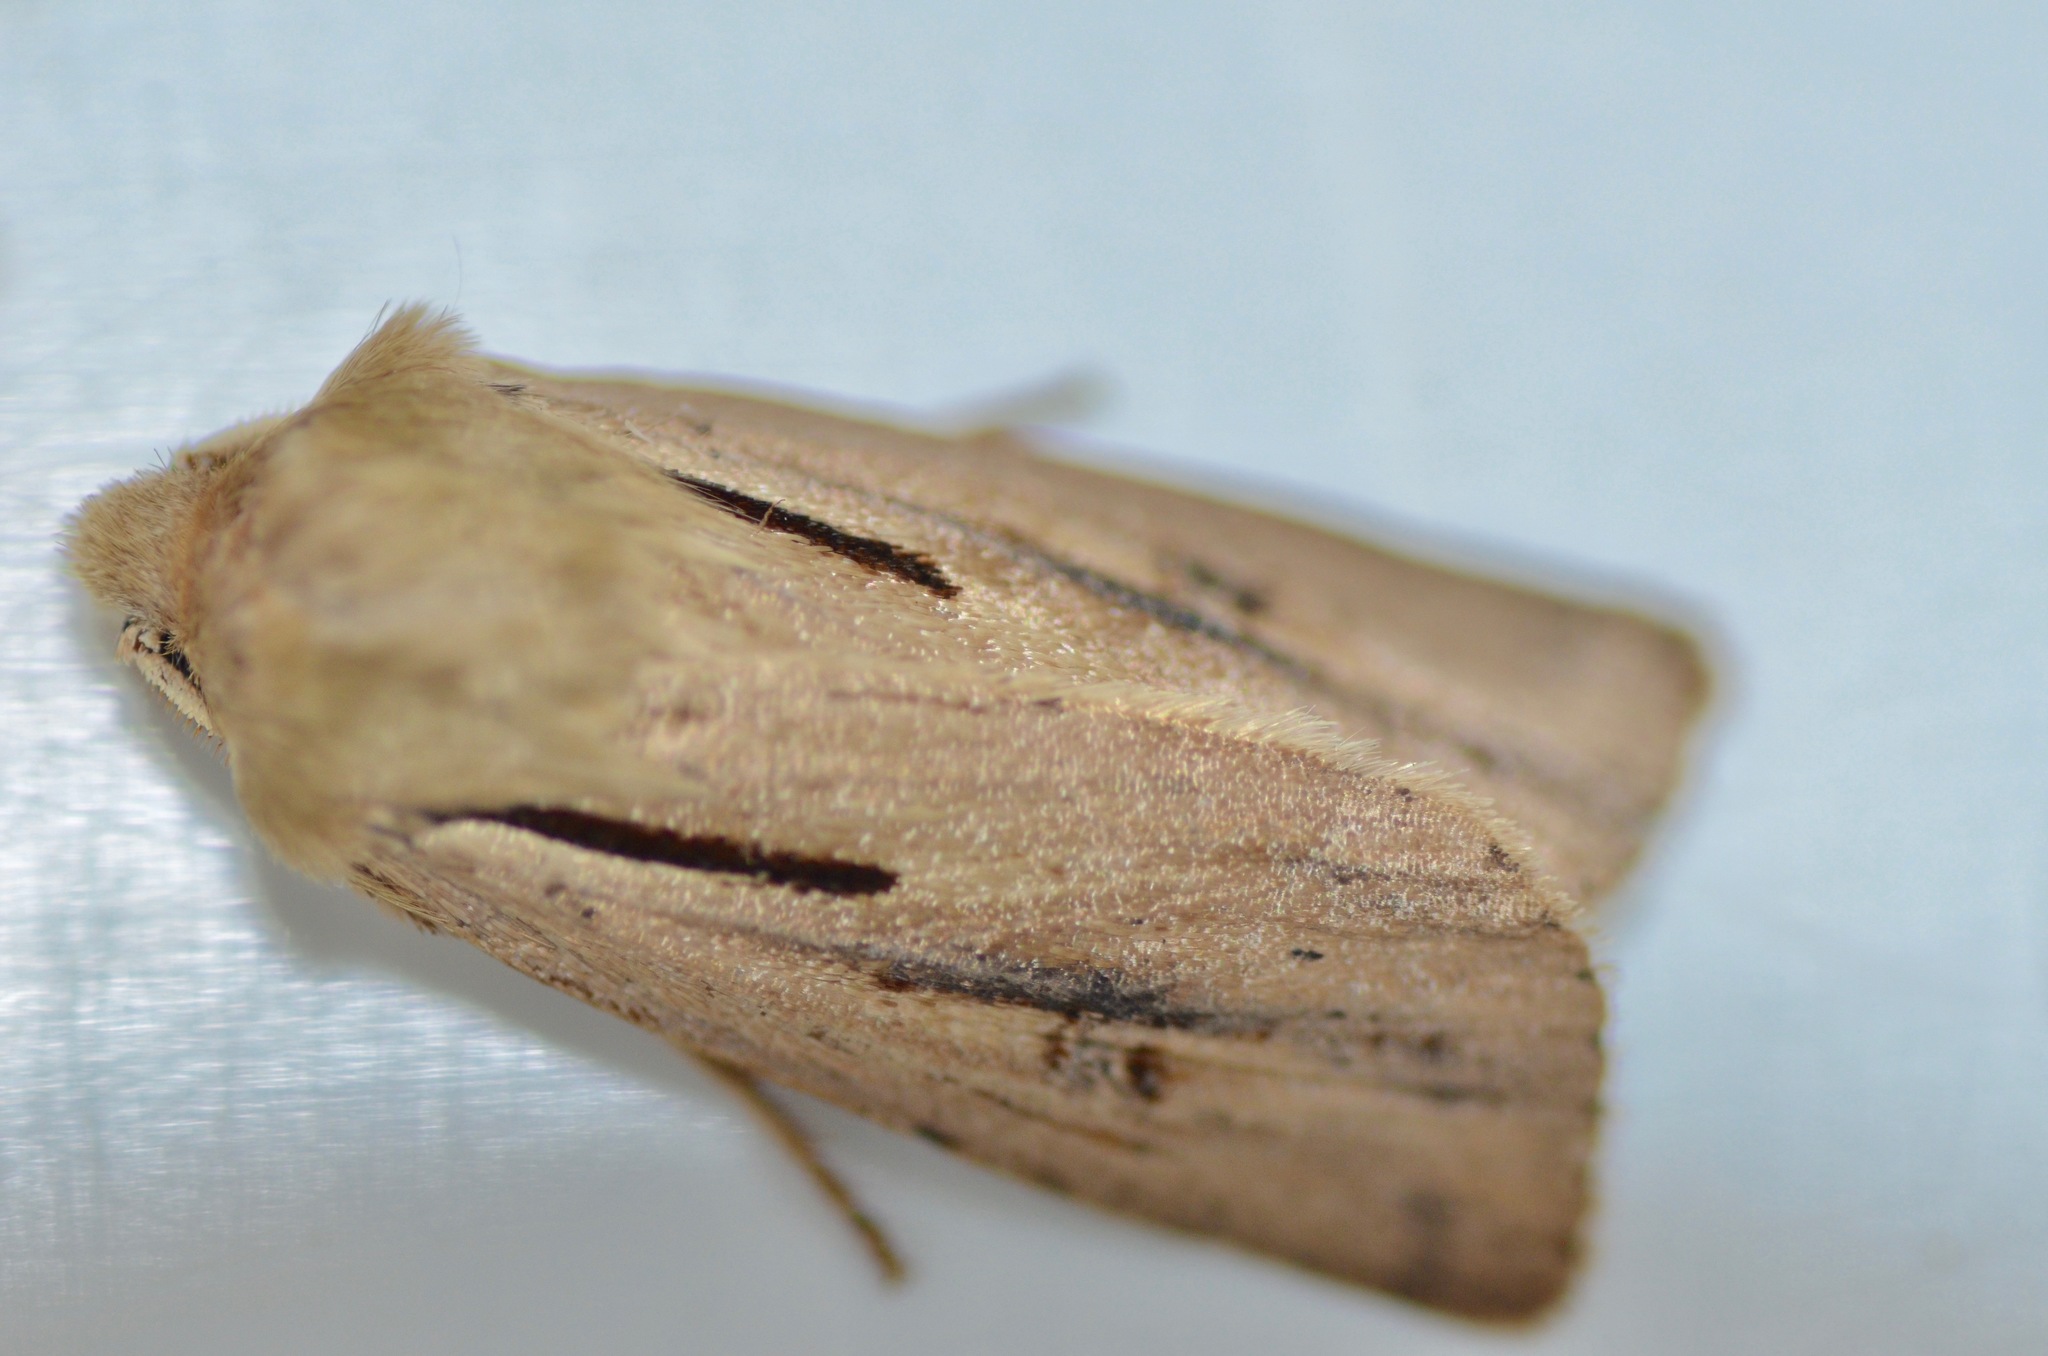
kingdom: Animalia
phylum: Arthropoda
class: Insecta
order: Lepidoptera
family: Noctuidae
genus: Ichneutica
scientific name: Ichneutica propria
